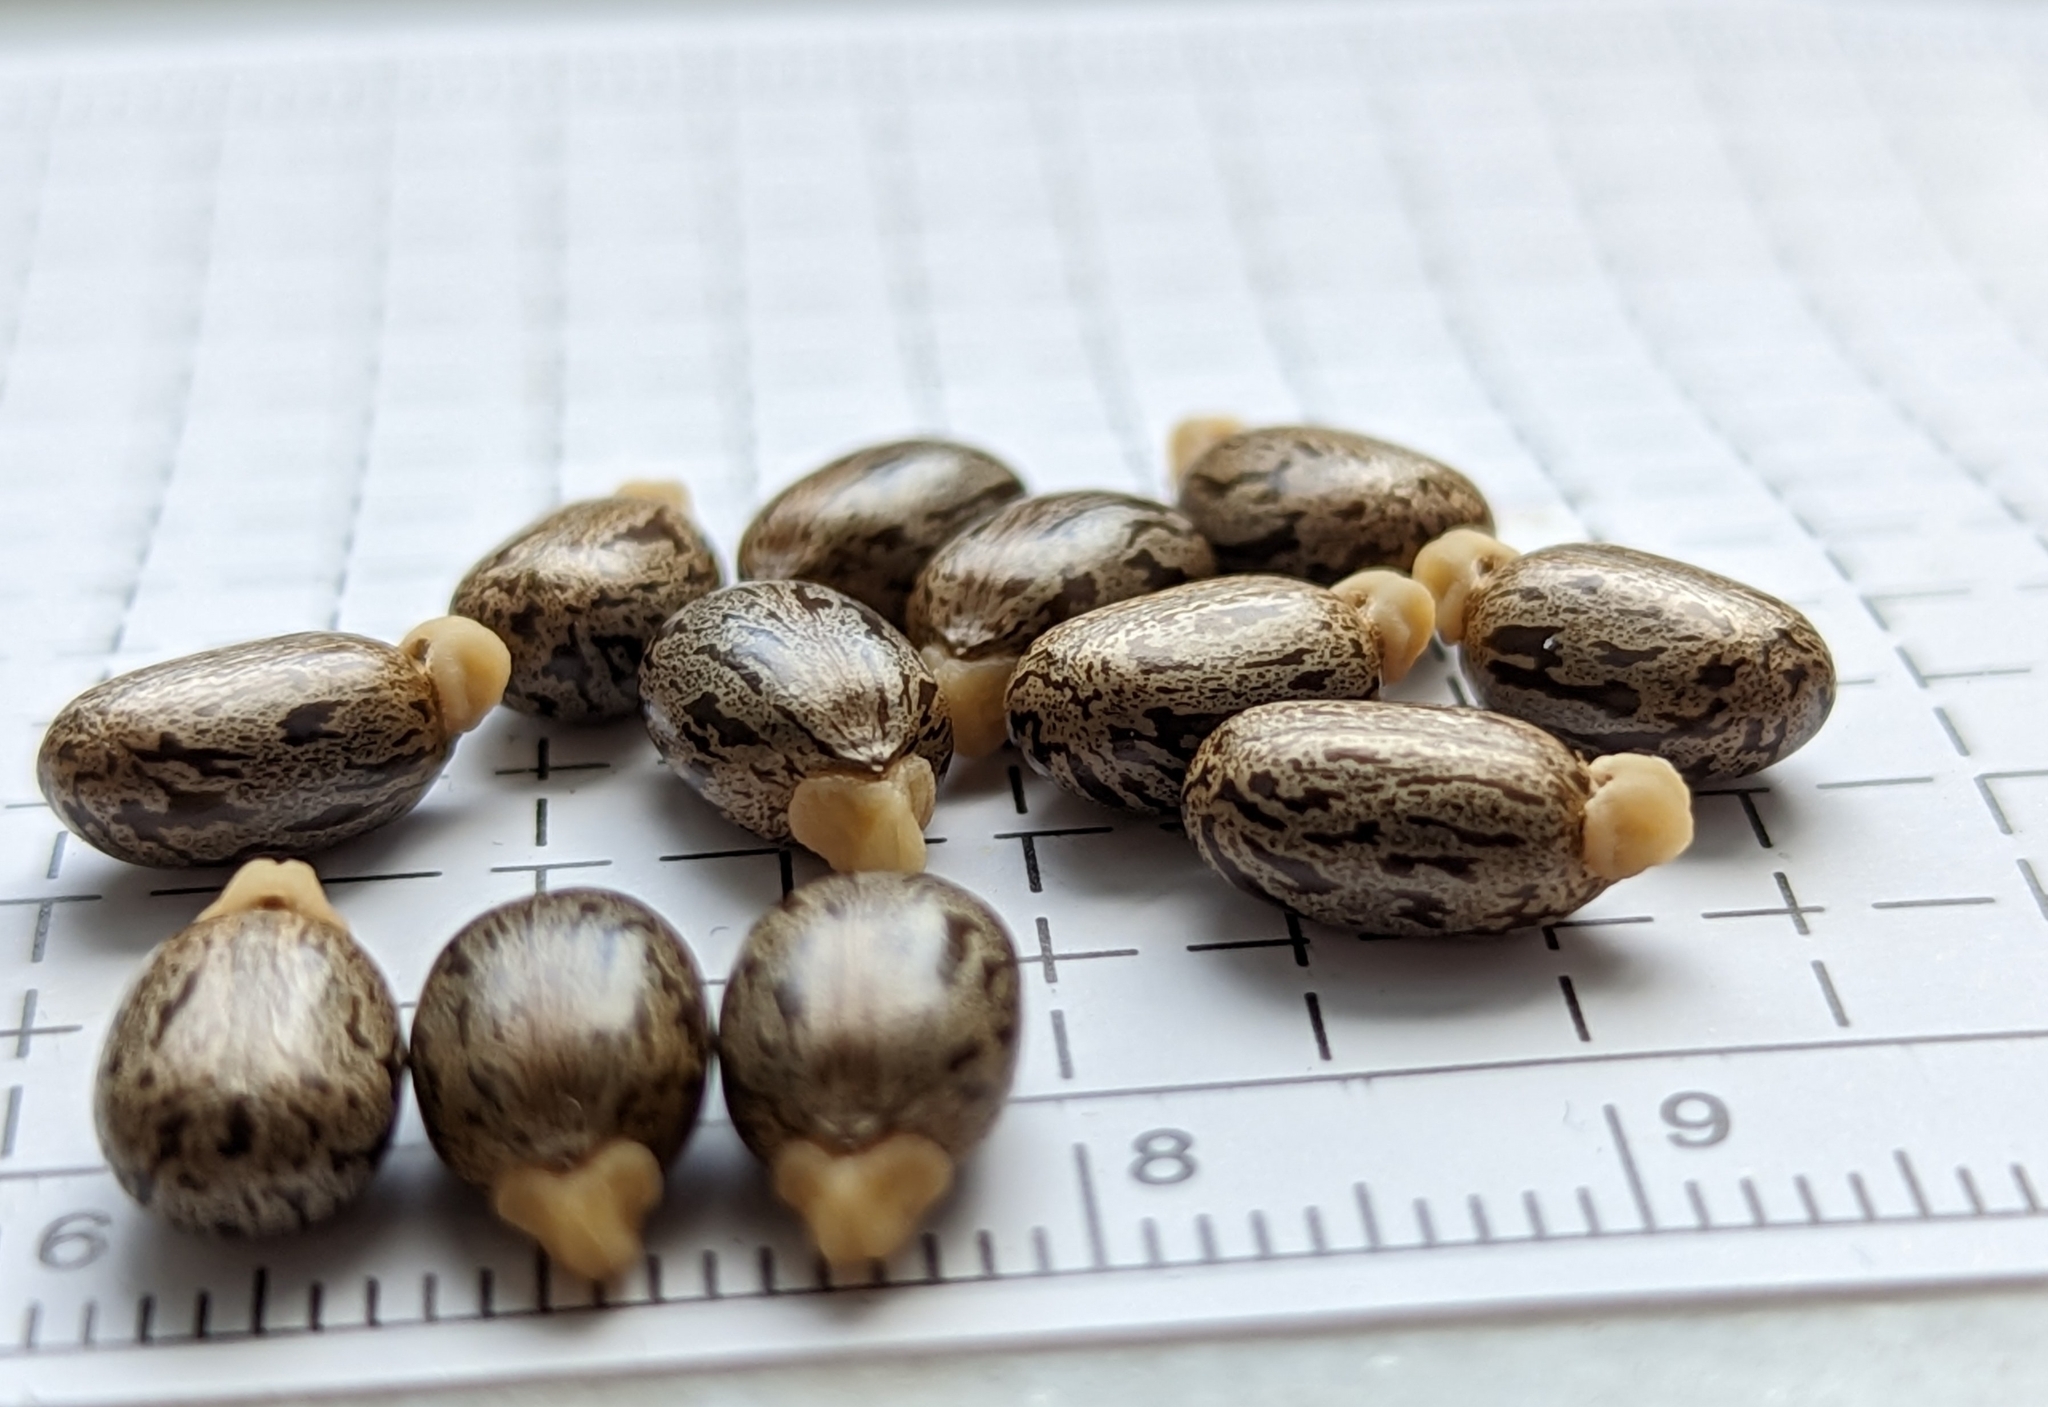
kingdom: Plantae
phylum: Tracheophyta
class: Magnoliopsida
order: Malpighiales
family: Euphorbiaceae
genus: Ricinus
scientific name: Ricinus communis
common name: Castor-oil-plant
